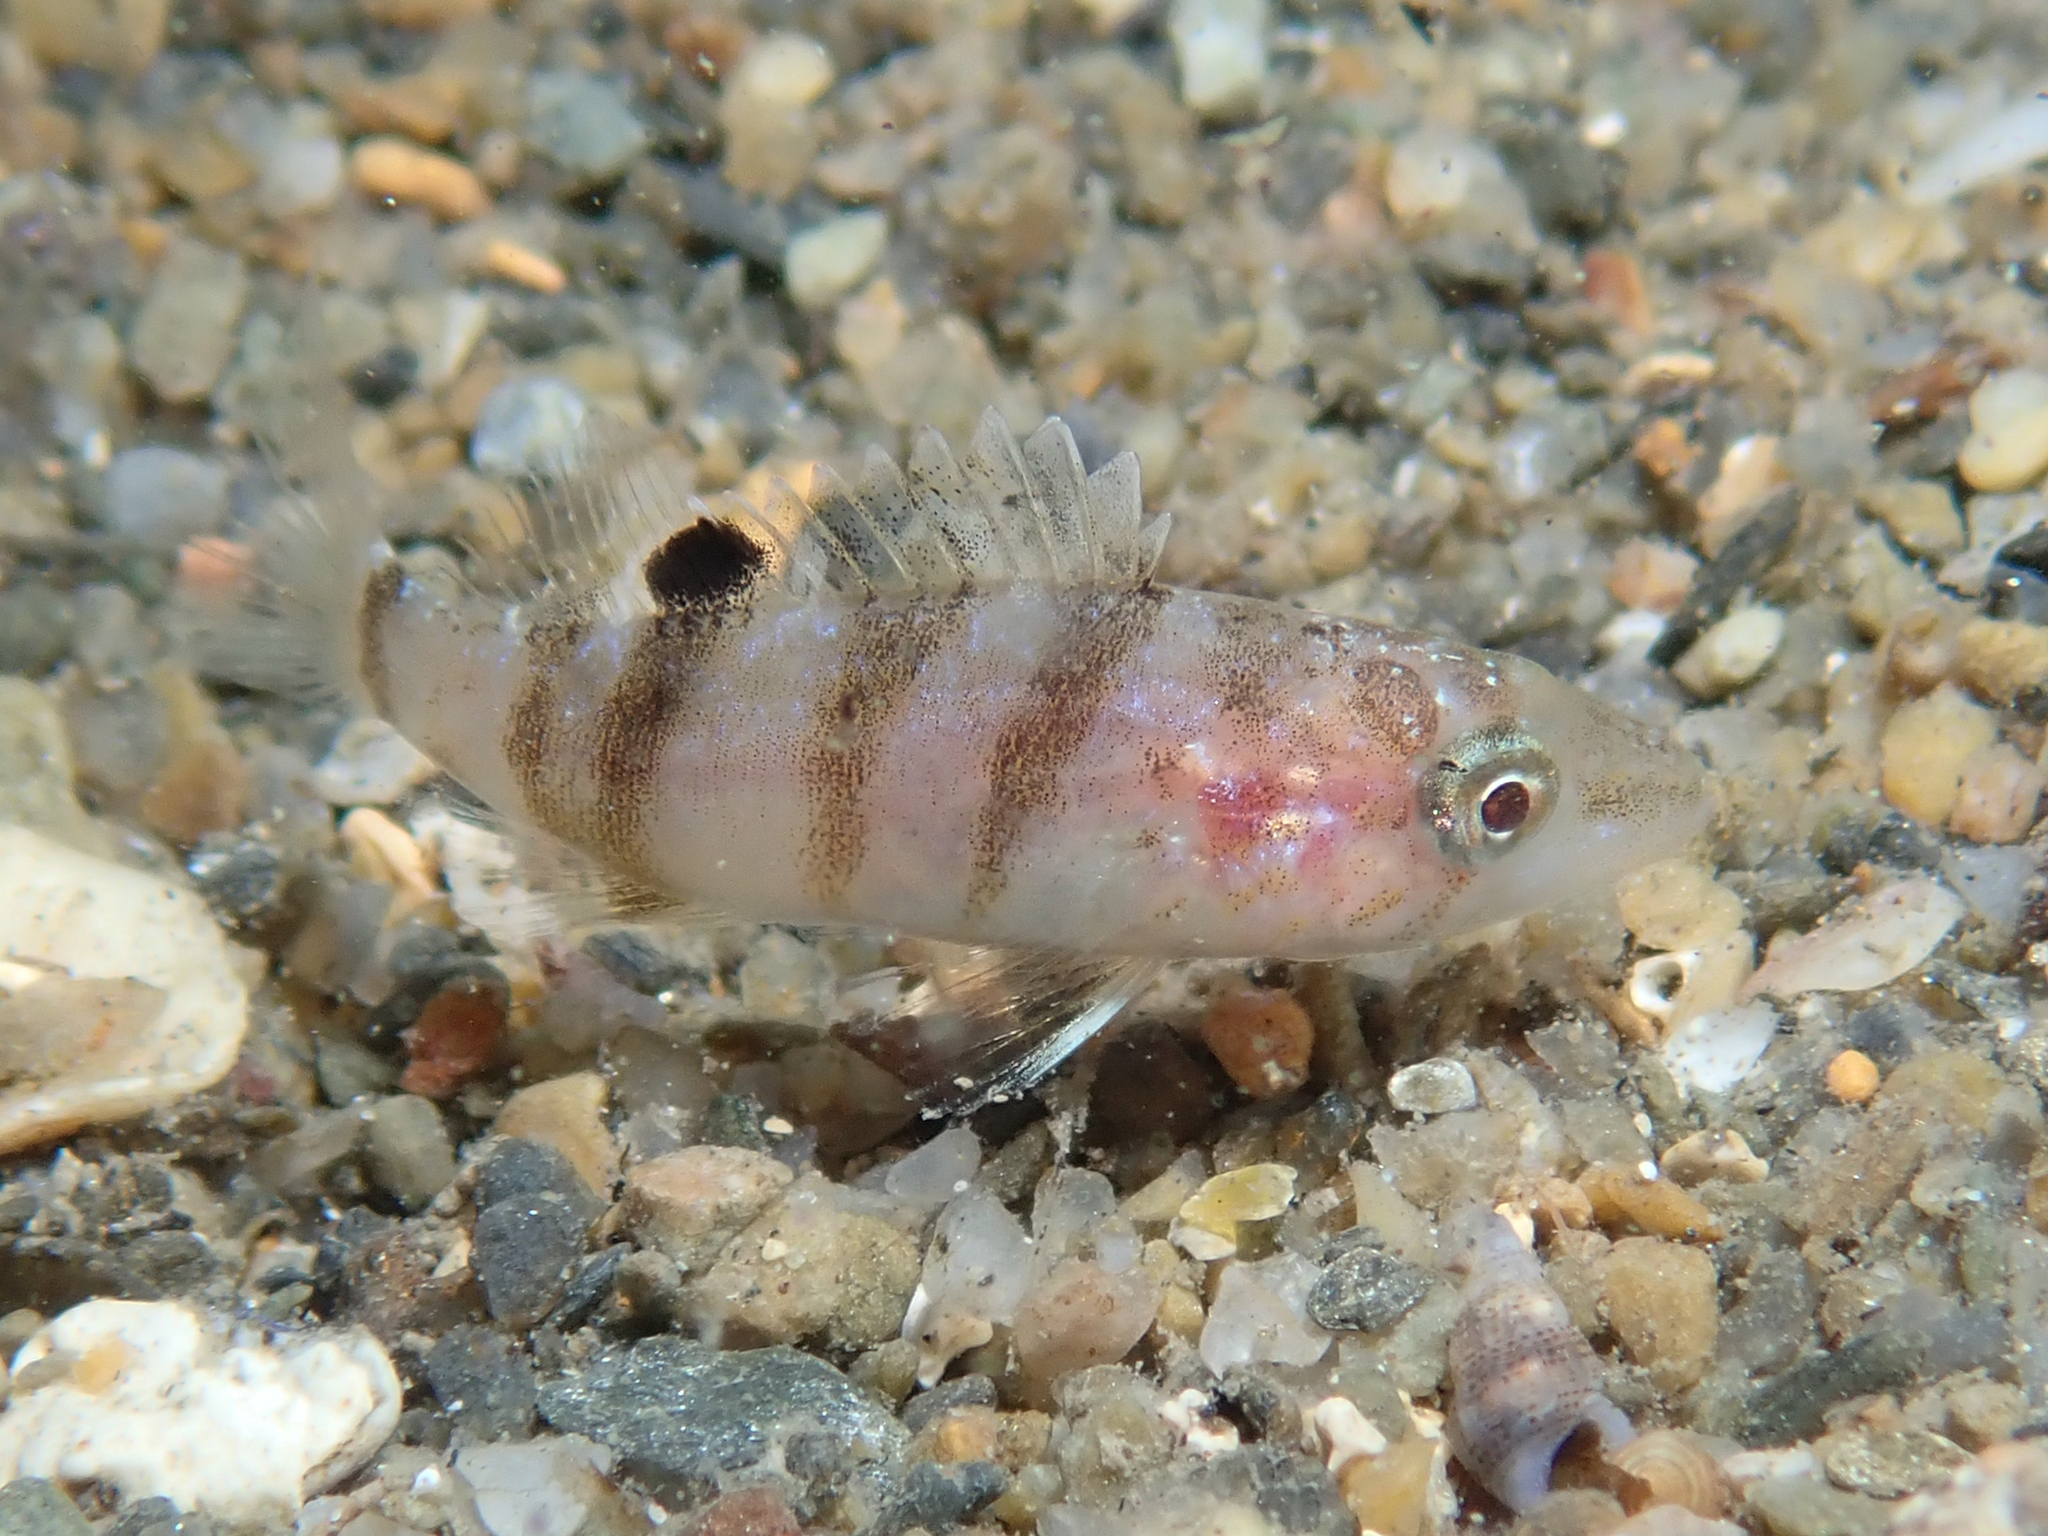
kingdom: Animalia
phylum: Chordata
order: Perciformes
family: Serranidae
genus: Serranus
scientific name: Serranus hepatus
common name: Brown comber
